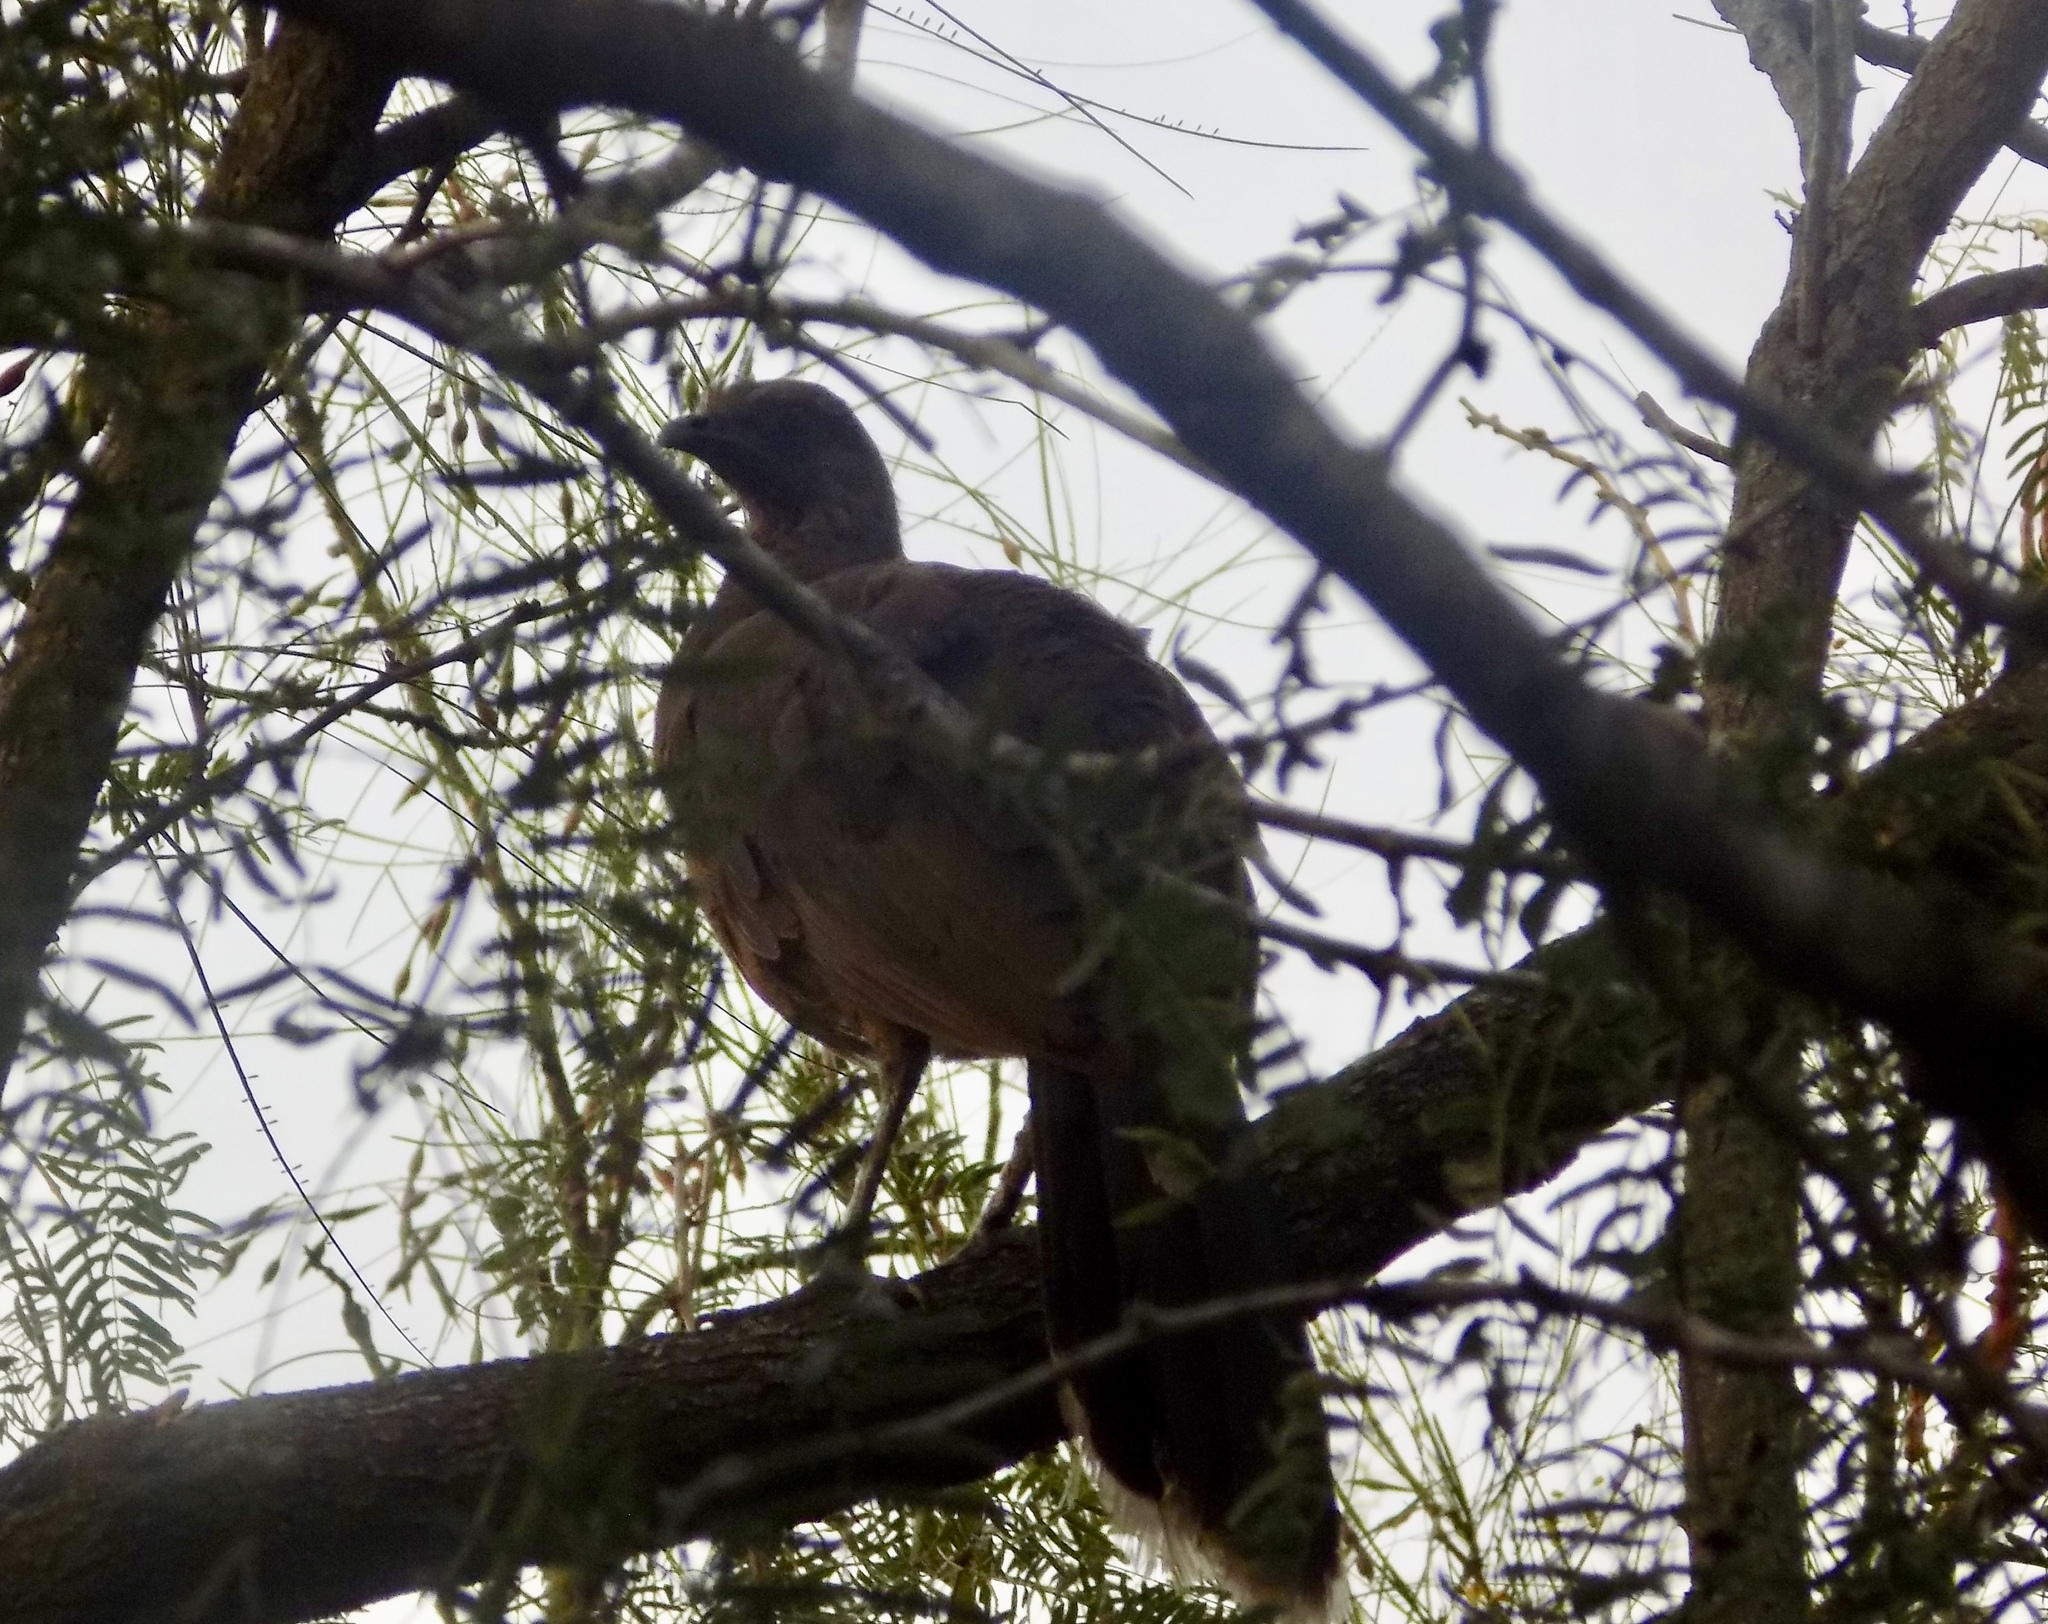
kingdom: Animalia
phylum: Chordata
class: Aves
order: Galliformes
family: Cracidae
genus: Ortalis
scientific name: Ortalis vetula
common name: Plain chachalaca
